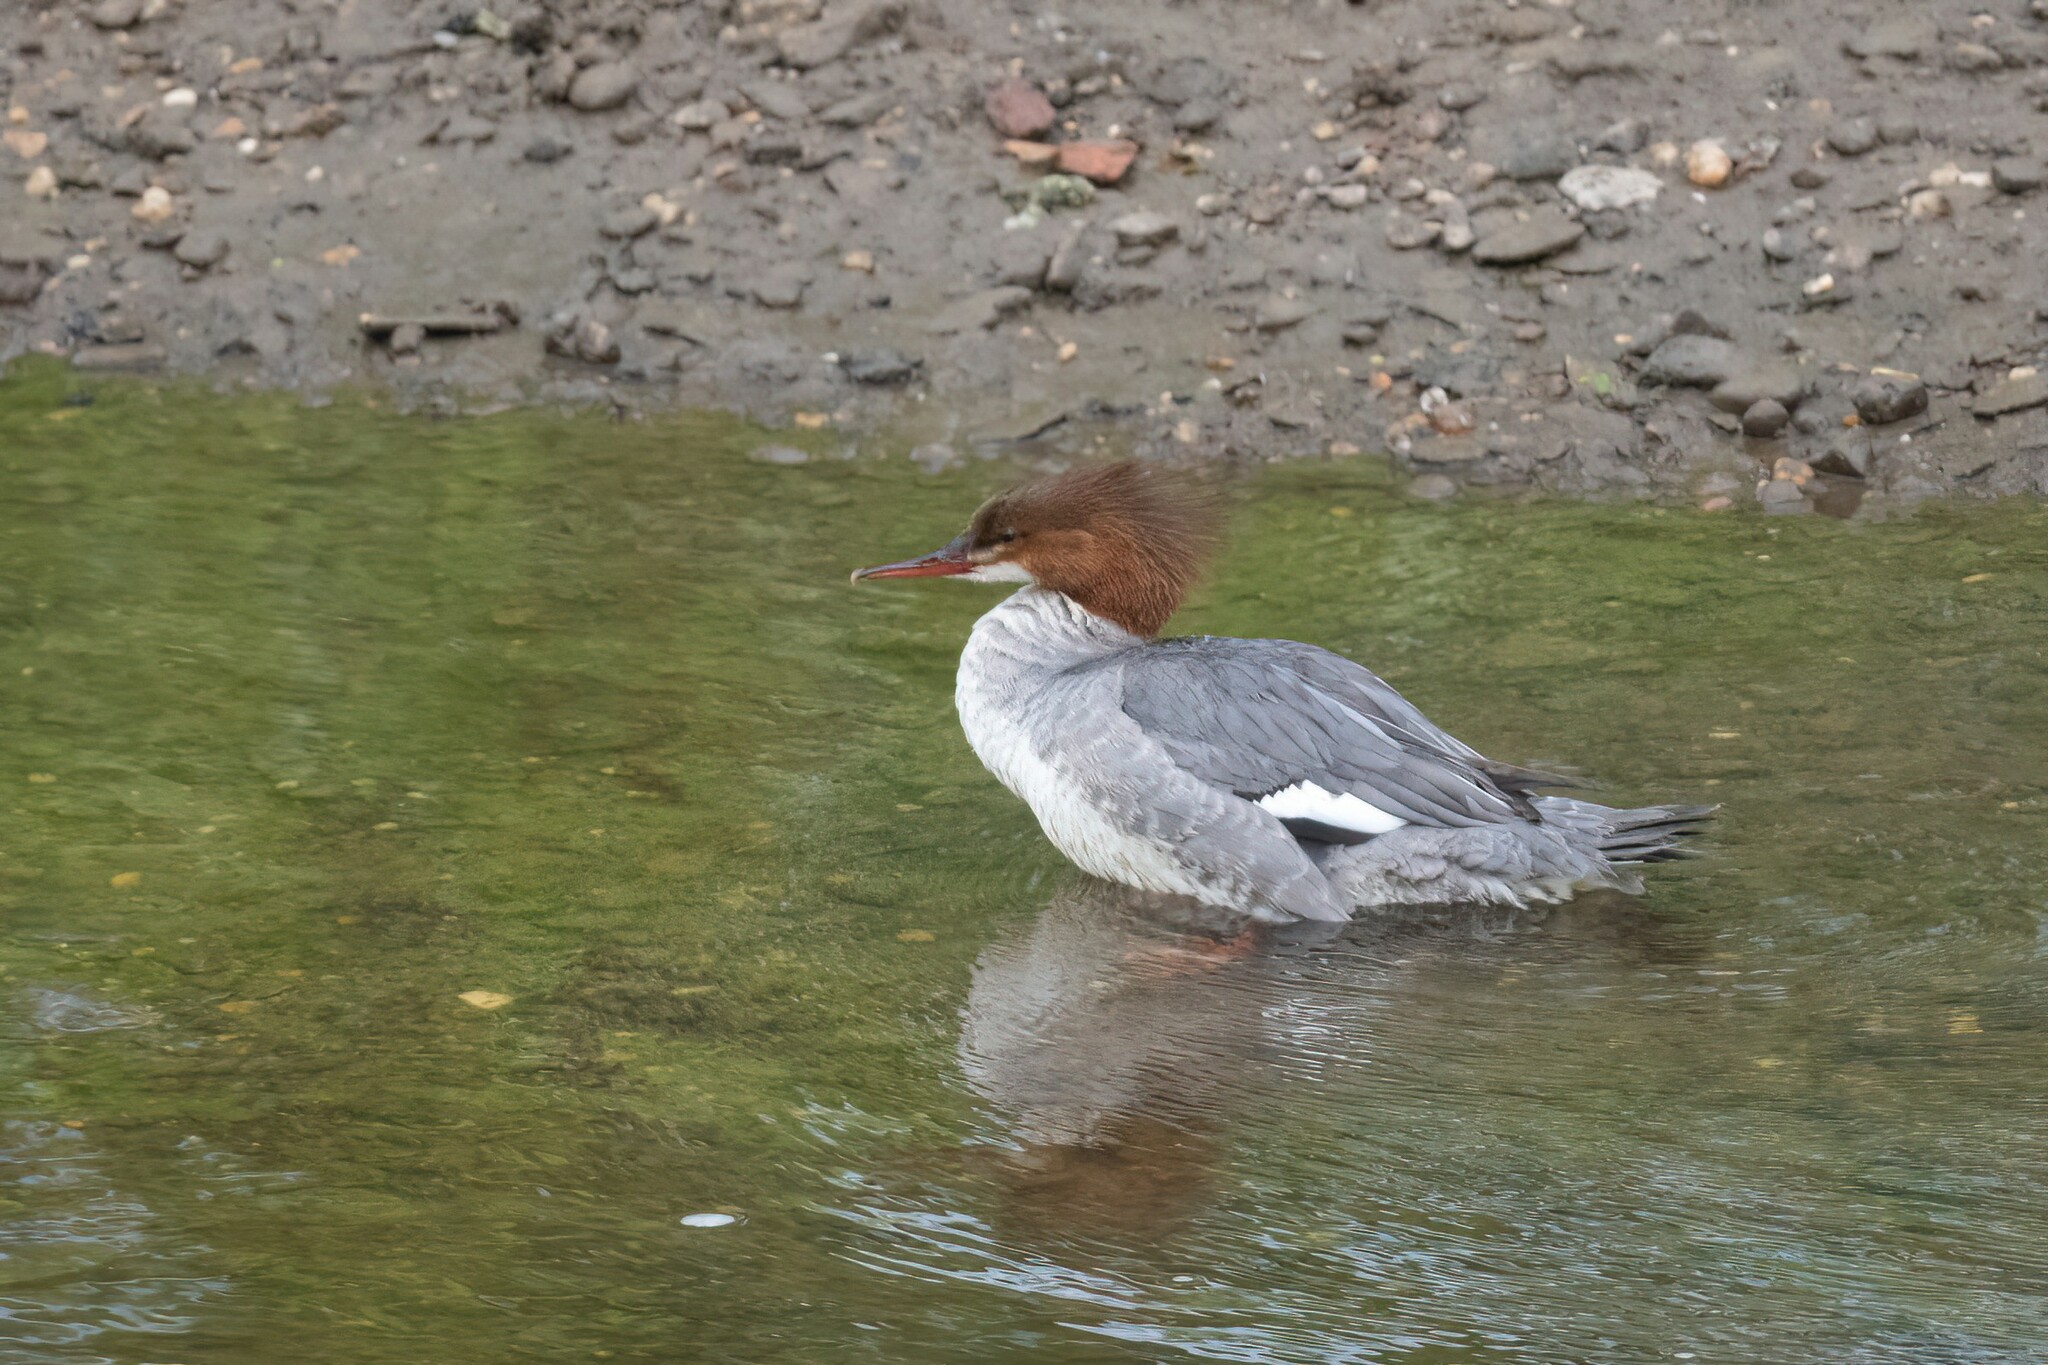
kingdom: Animalia
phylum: Chordata
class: Aves
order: Anseriformes
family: Anatidae
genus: Mergus
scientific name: Mergus merganser
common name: Common merganser
